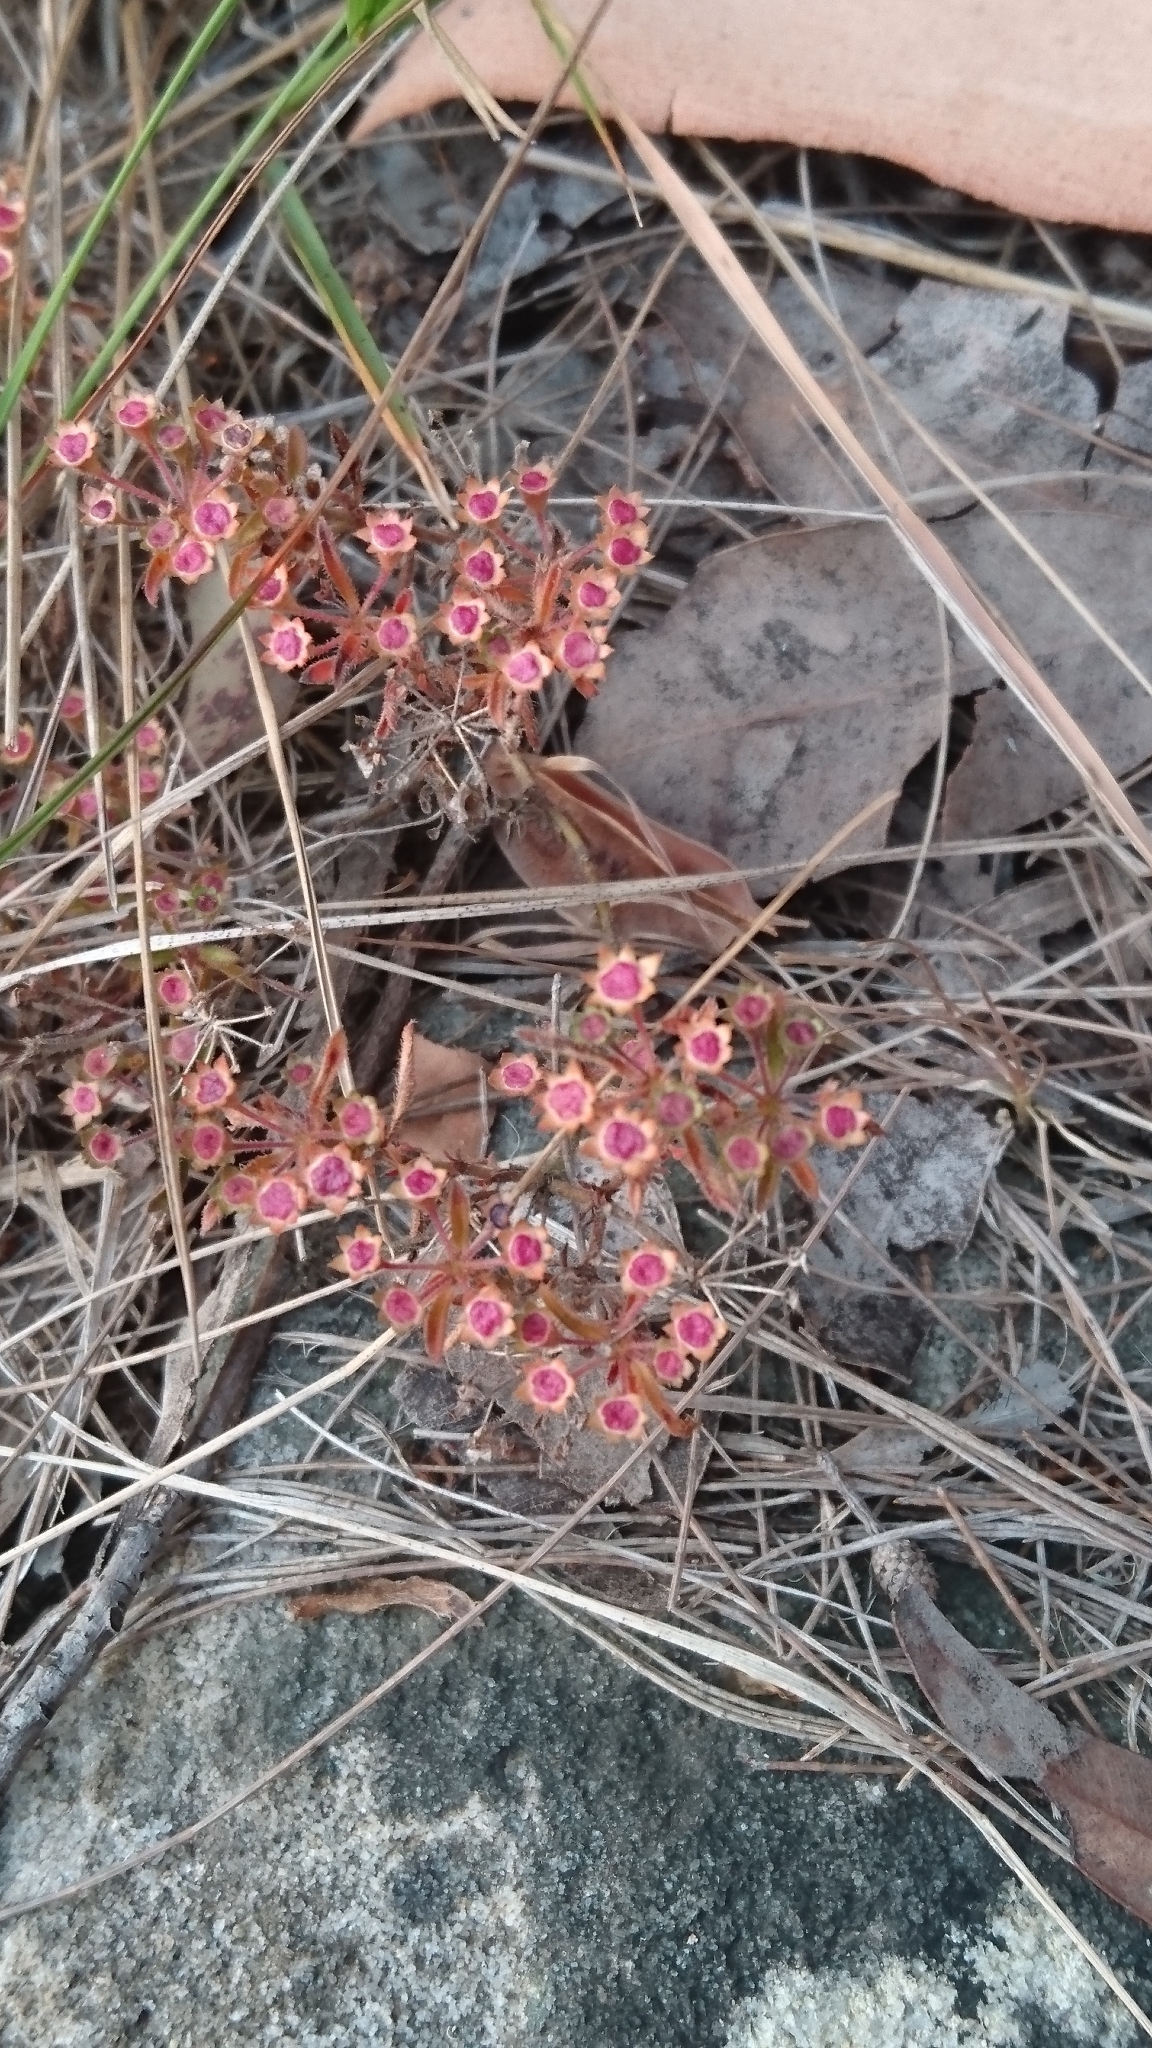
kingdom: Plantae
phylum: Tracheophyta
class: Magnoliopsida
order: Gentianales
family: Rubiaceae
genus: Pomax
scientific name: Pomax umbellata
